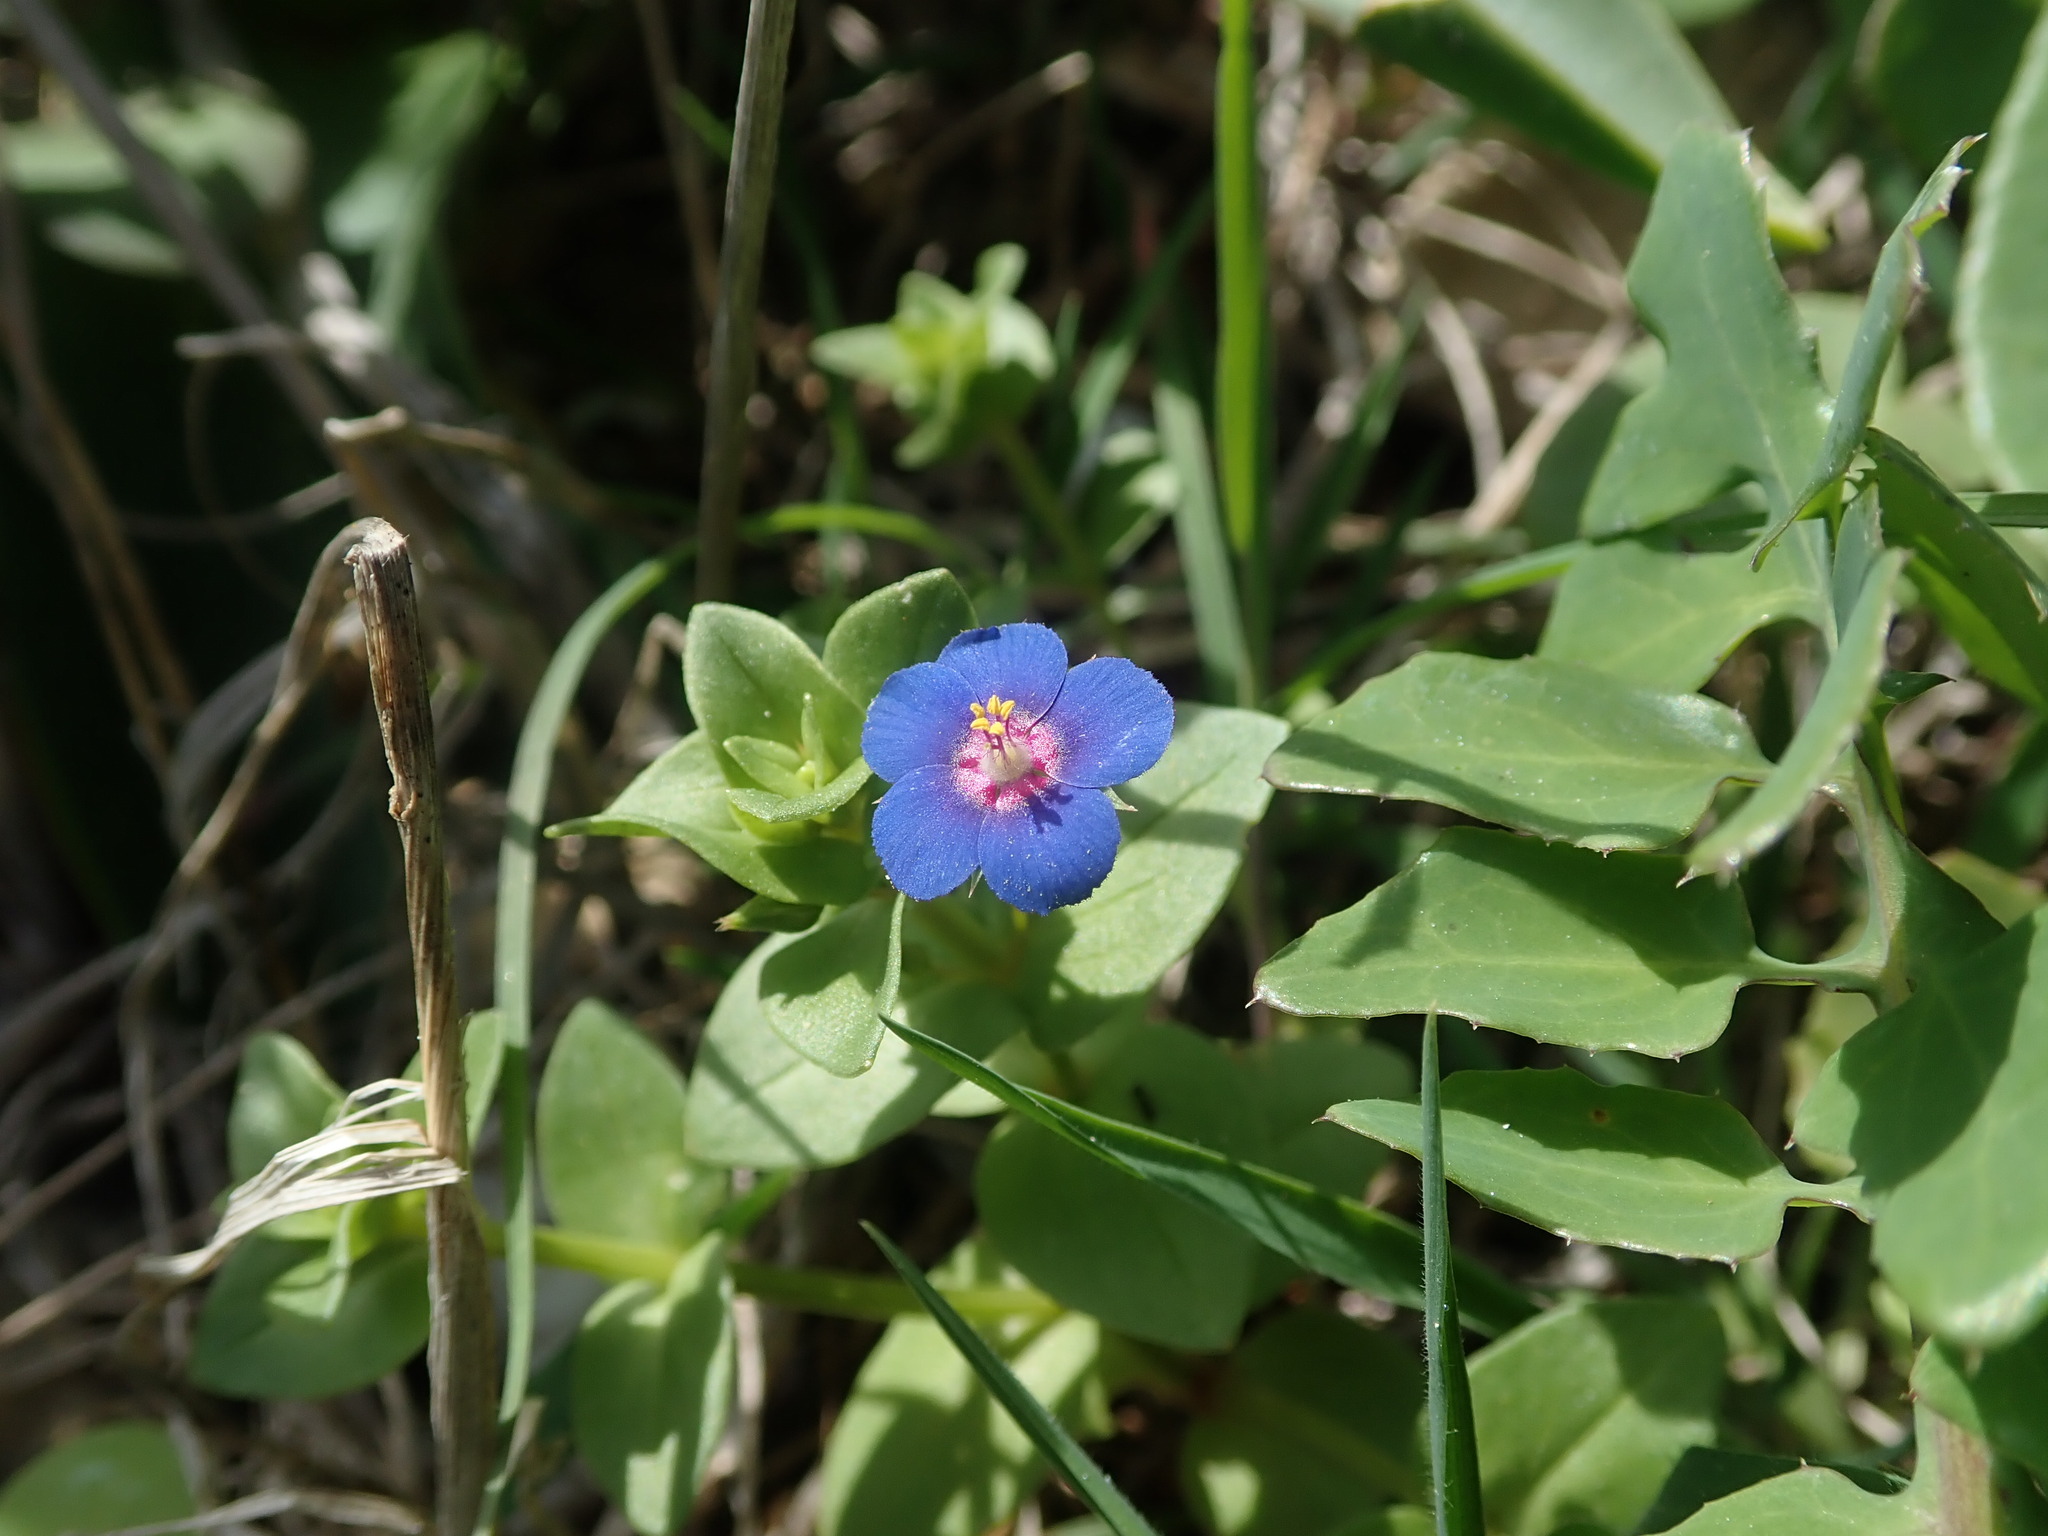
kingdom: Plantae
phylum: Tracheophyta
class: Magnoliopsida
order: Ericales
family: Primulaceae
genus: Lysimachia
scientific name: Lysimachia loeflingii
